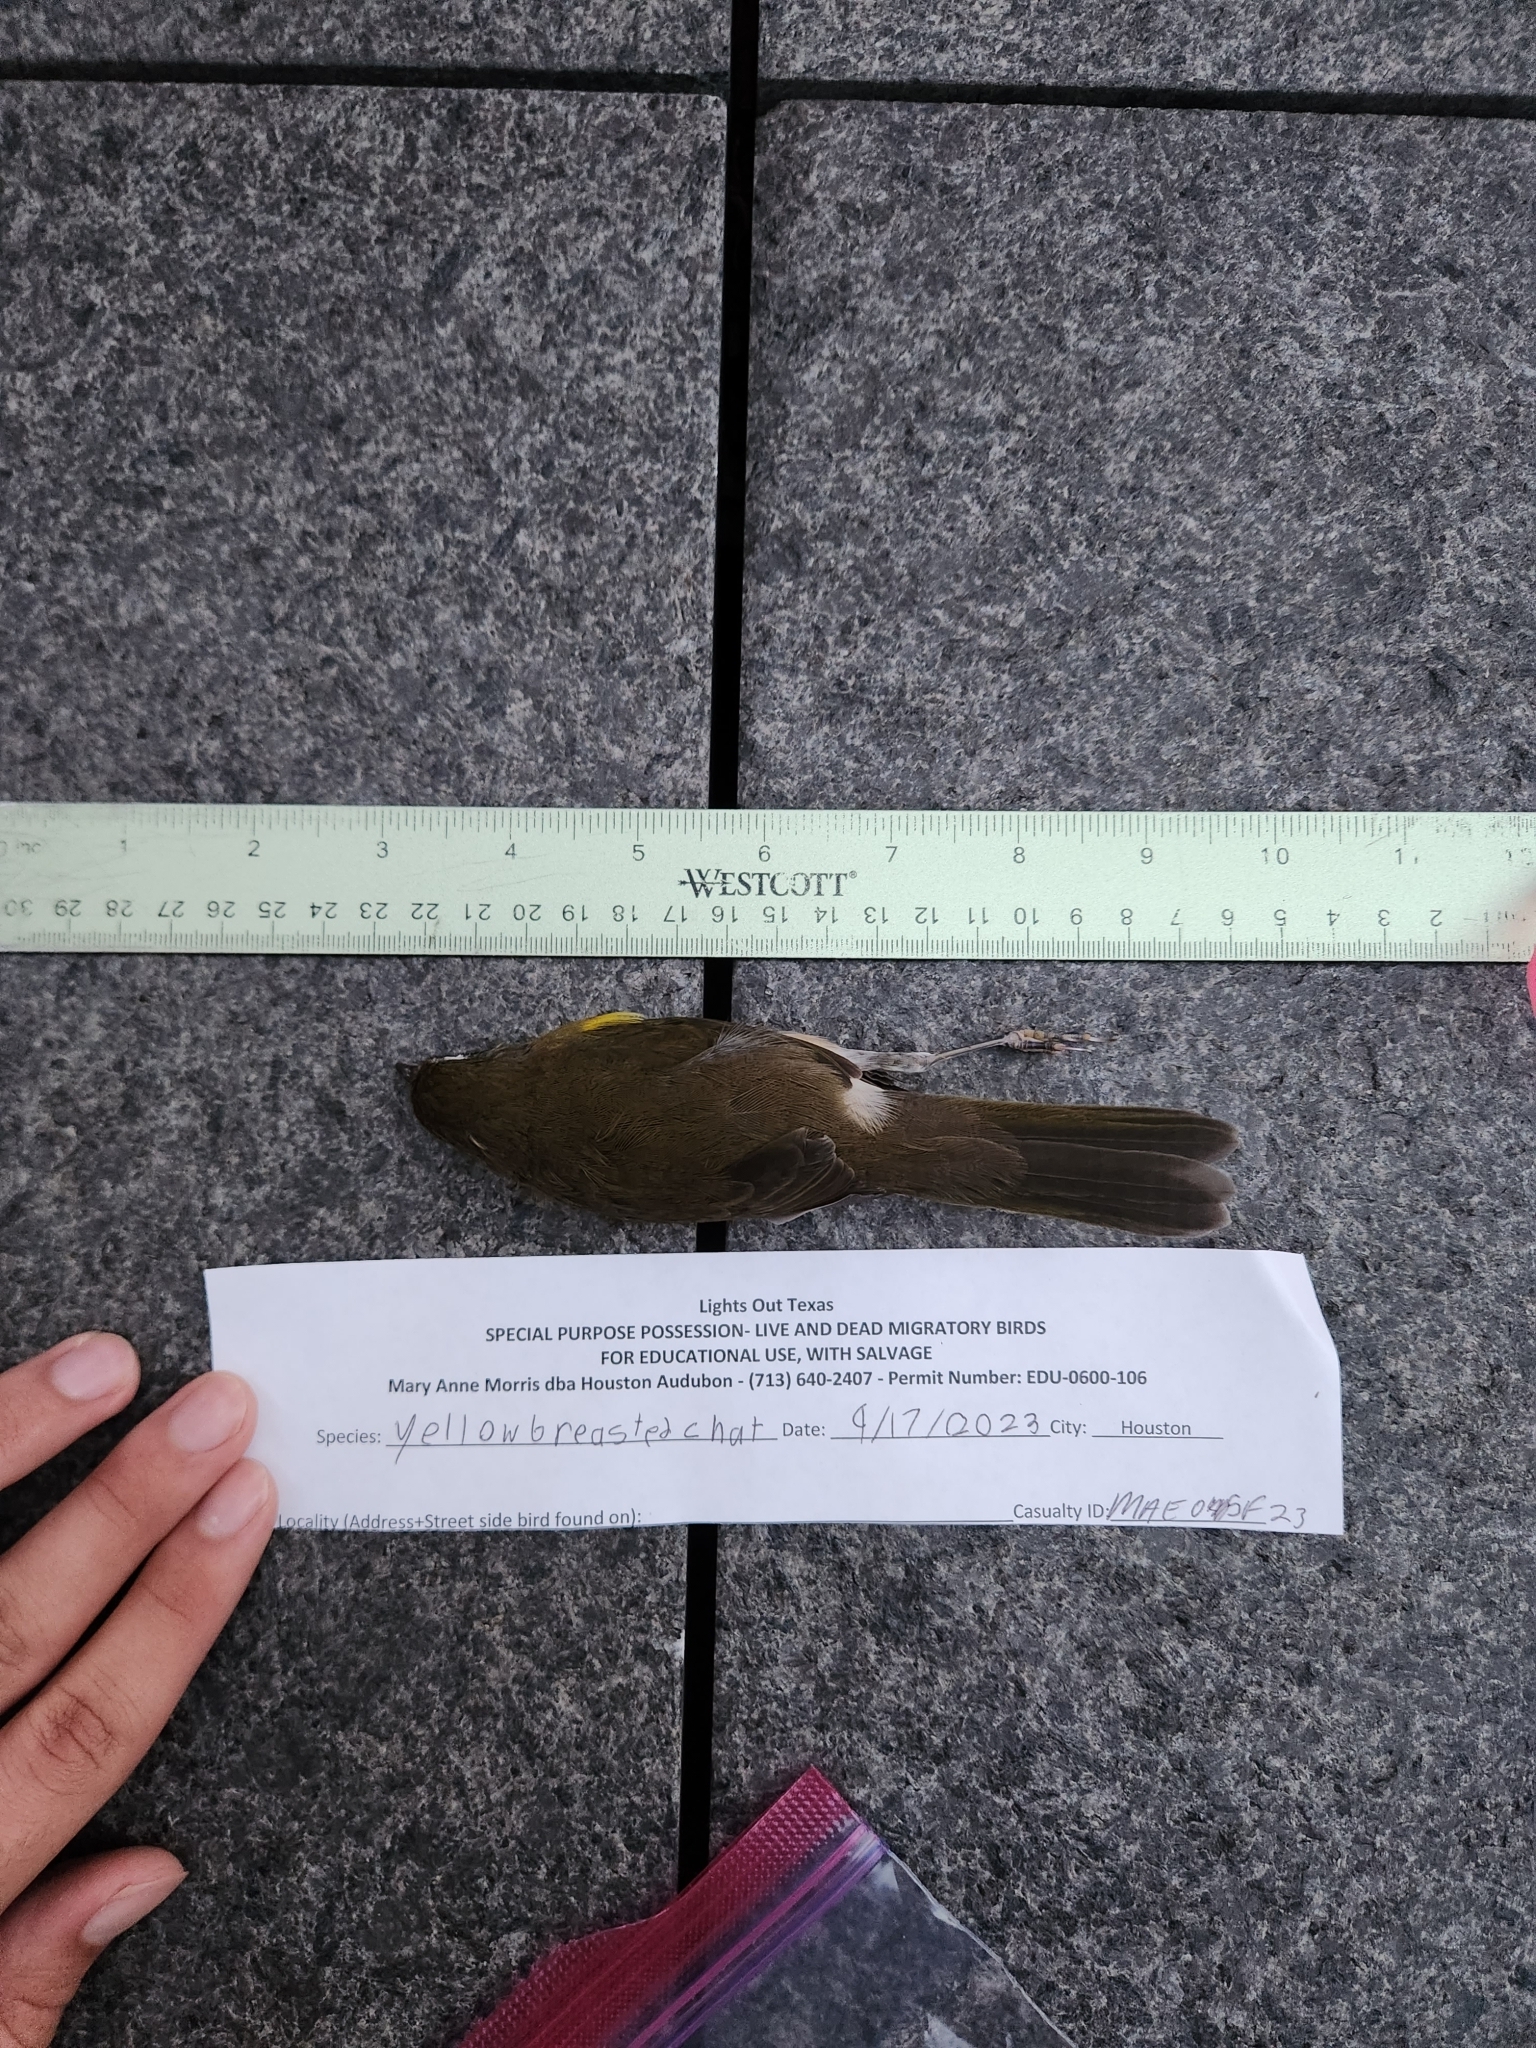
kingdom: Animalia
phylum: Chordata
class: Aves
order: Passeriformes
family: Parulidae
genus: Icteria
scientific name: Icteria virens
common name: Yellow-breasted chat
